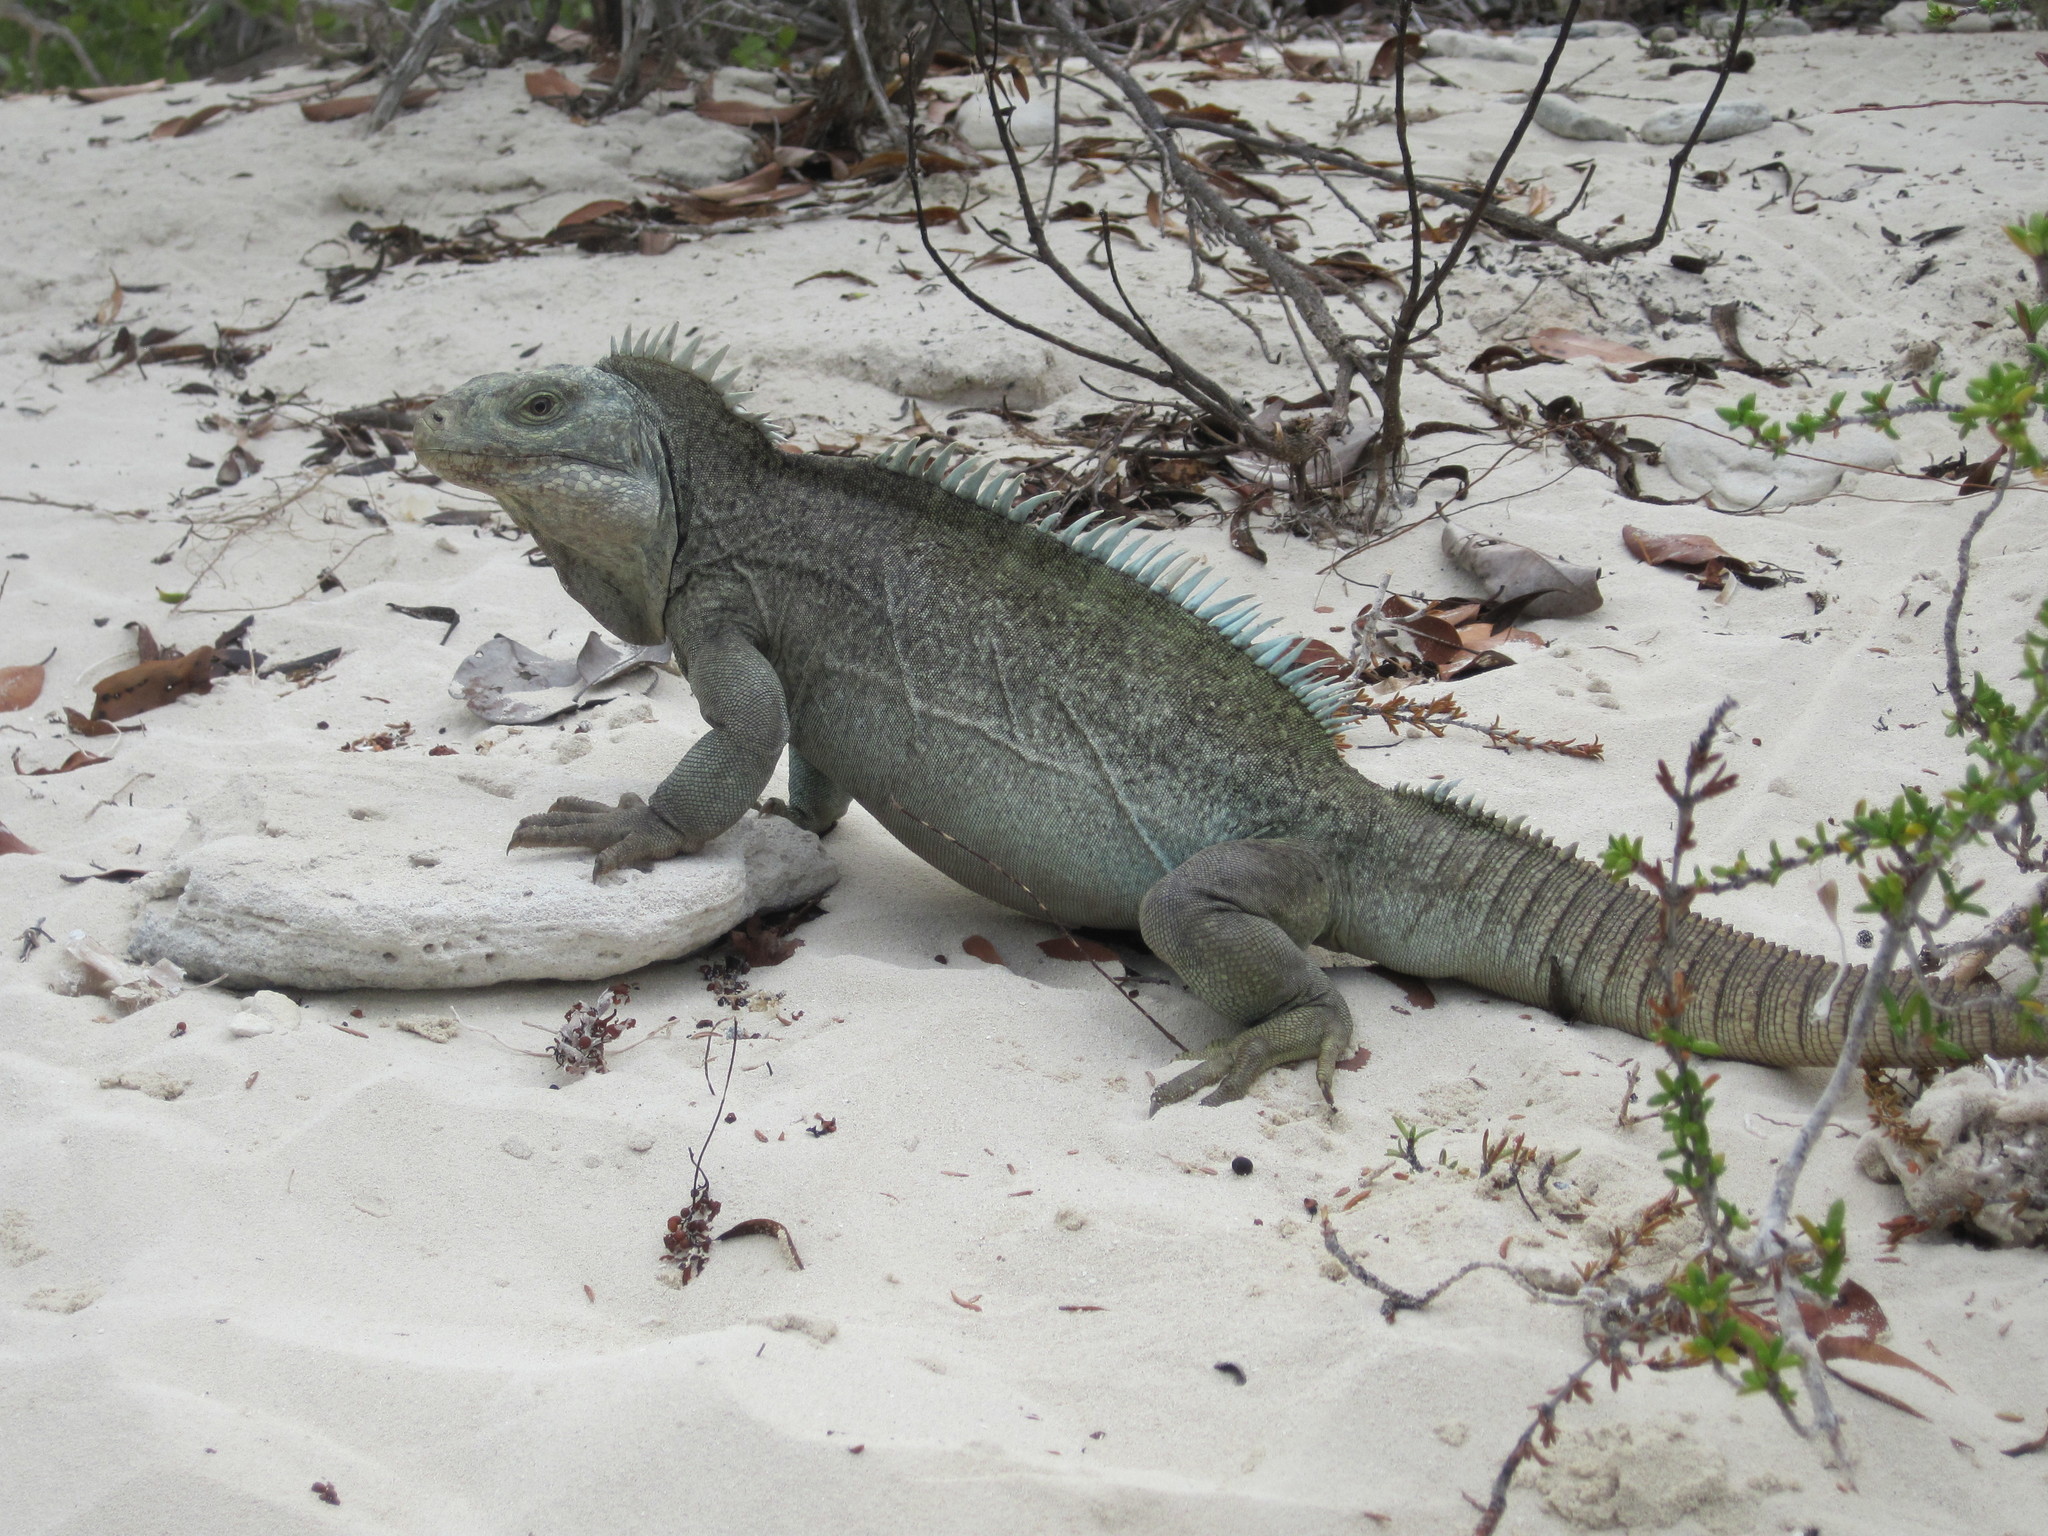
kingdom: Animalia
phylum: Chordata
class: Squamata
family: Iguanidae
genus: Cyclura
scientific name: Cyclura carinata
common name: Turks island iguana
